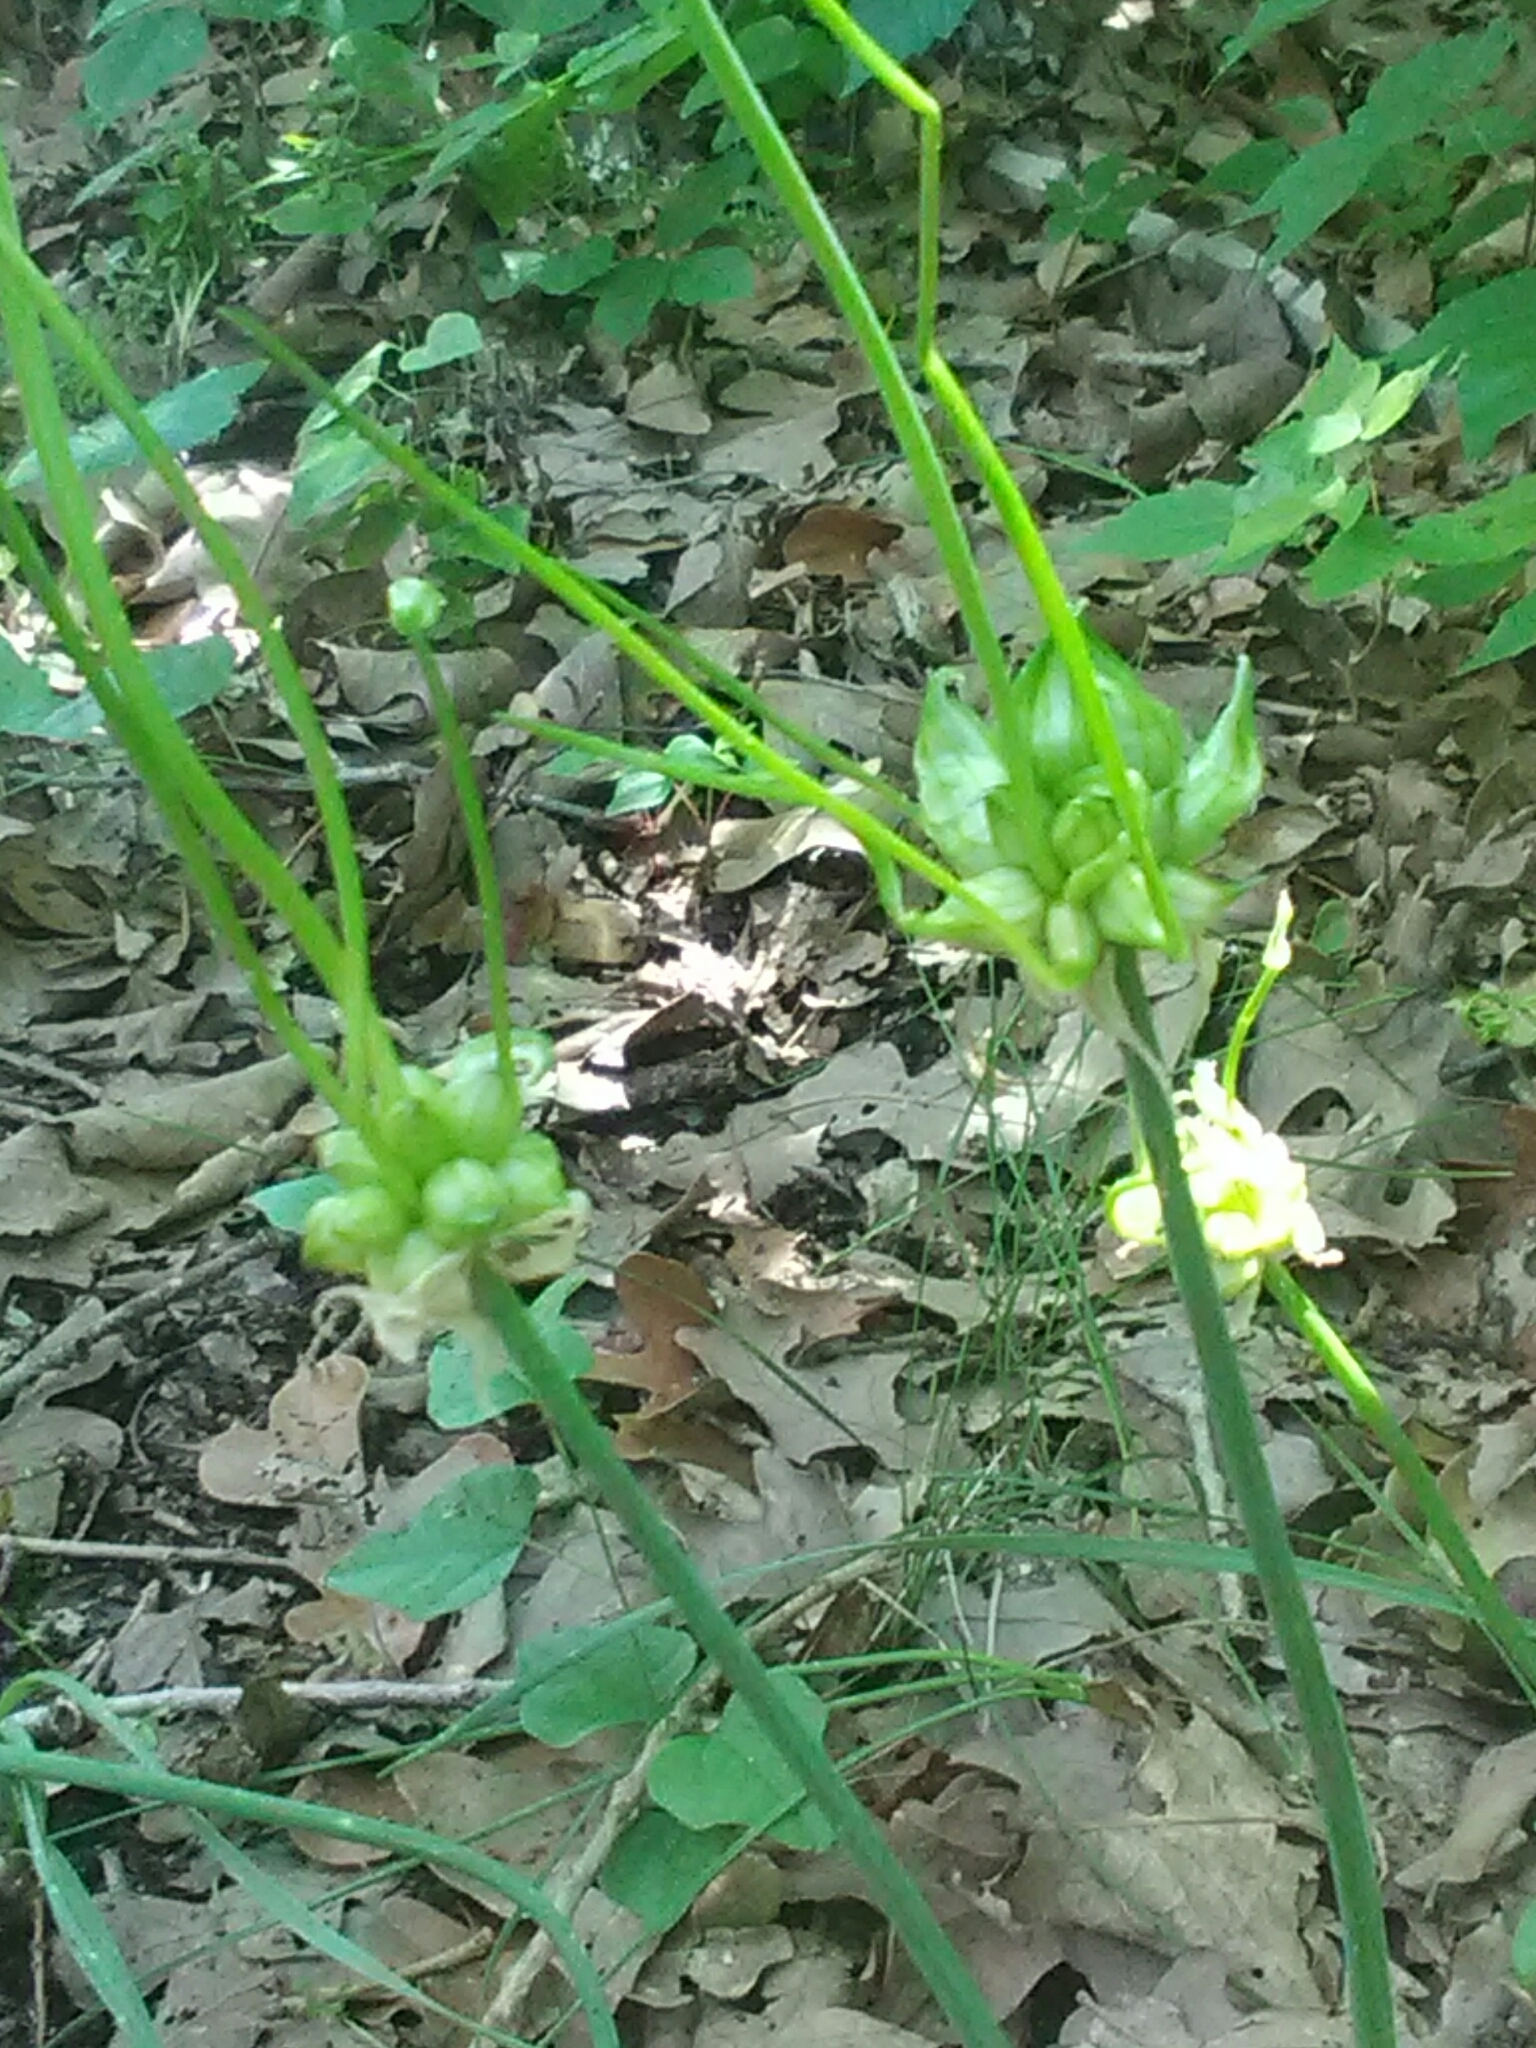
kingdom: Plantae
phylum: Tracheophyta
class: Liliopsida
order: Asparagales
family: Amaryllidaceae
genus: Allium
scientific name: Allium canadense
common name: Meadow garlic
